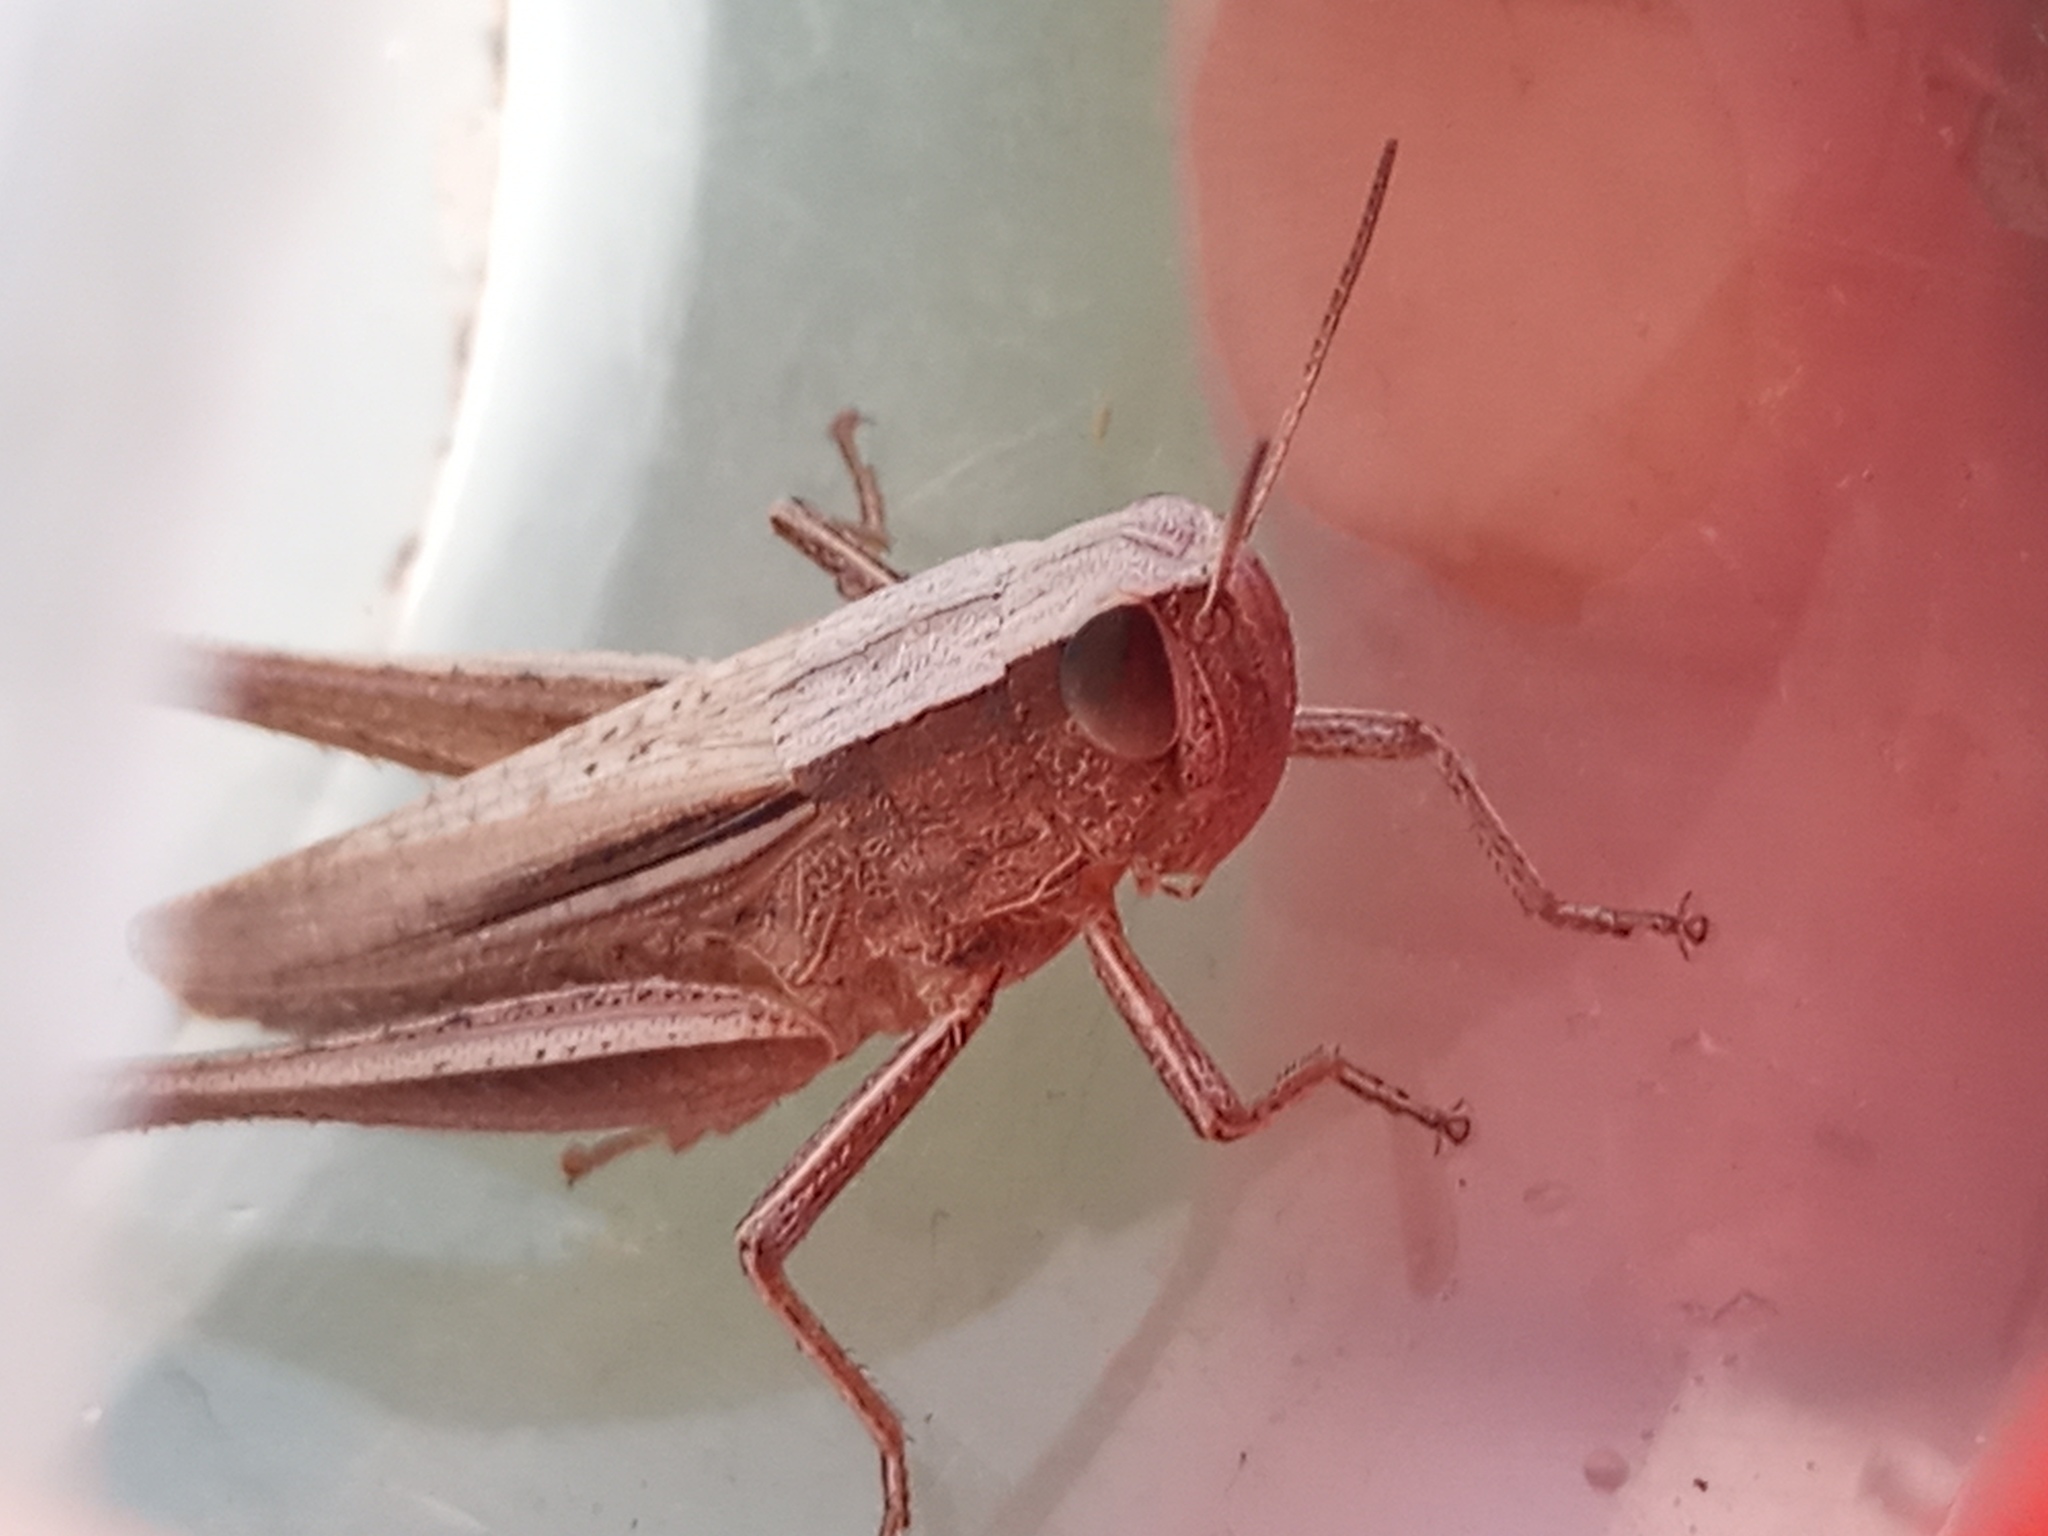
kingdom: Animalia
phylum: Arthropoda
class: Insecta
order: Orthoptera
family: Acrididae
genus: Amblytropidia
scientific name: Amblytropidia australis
